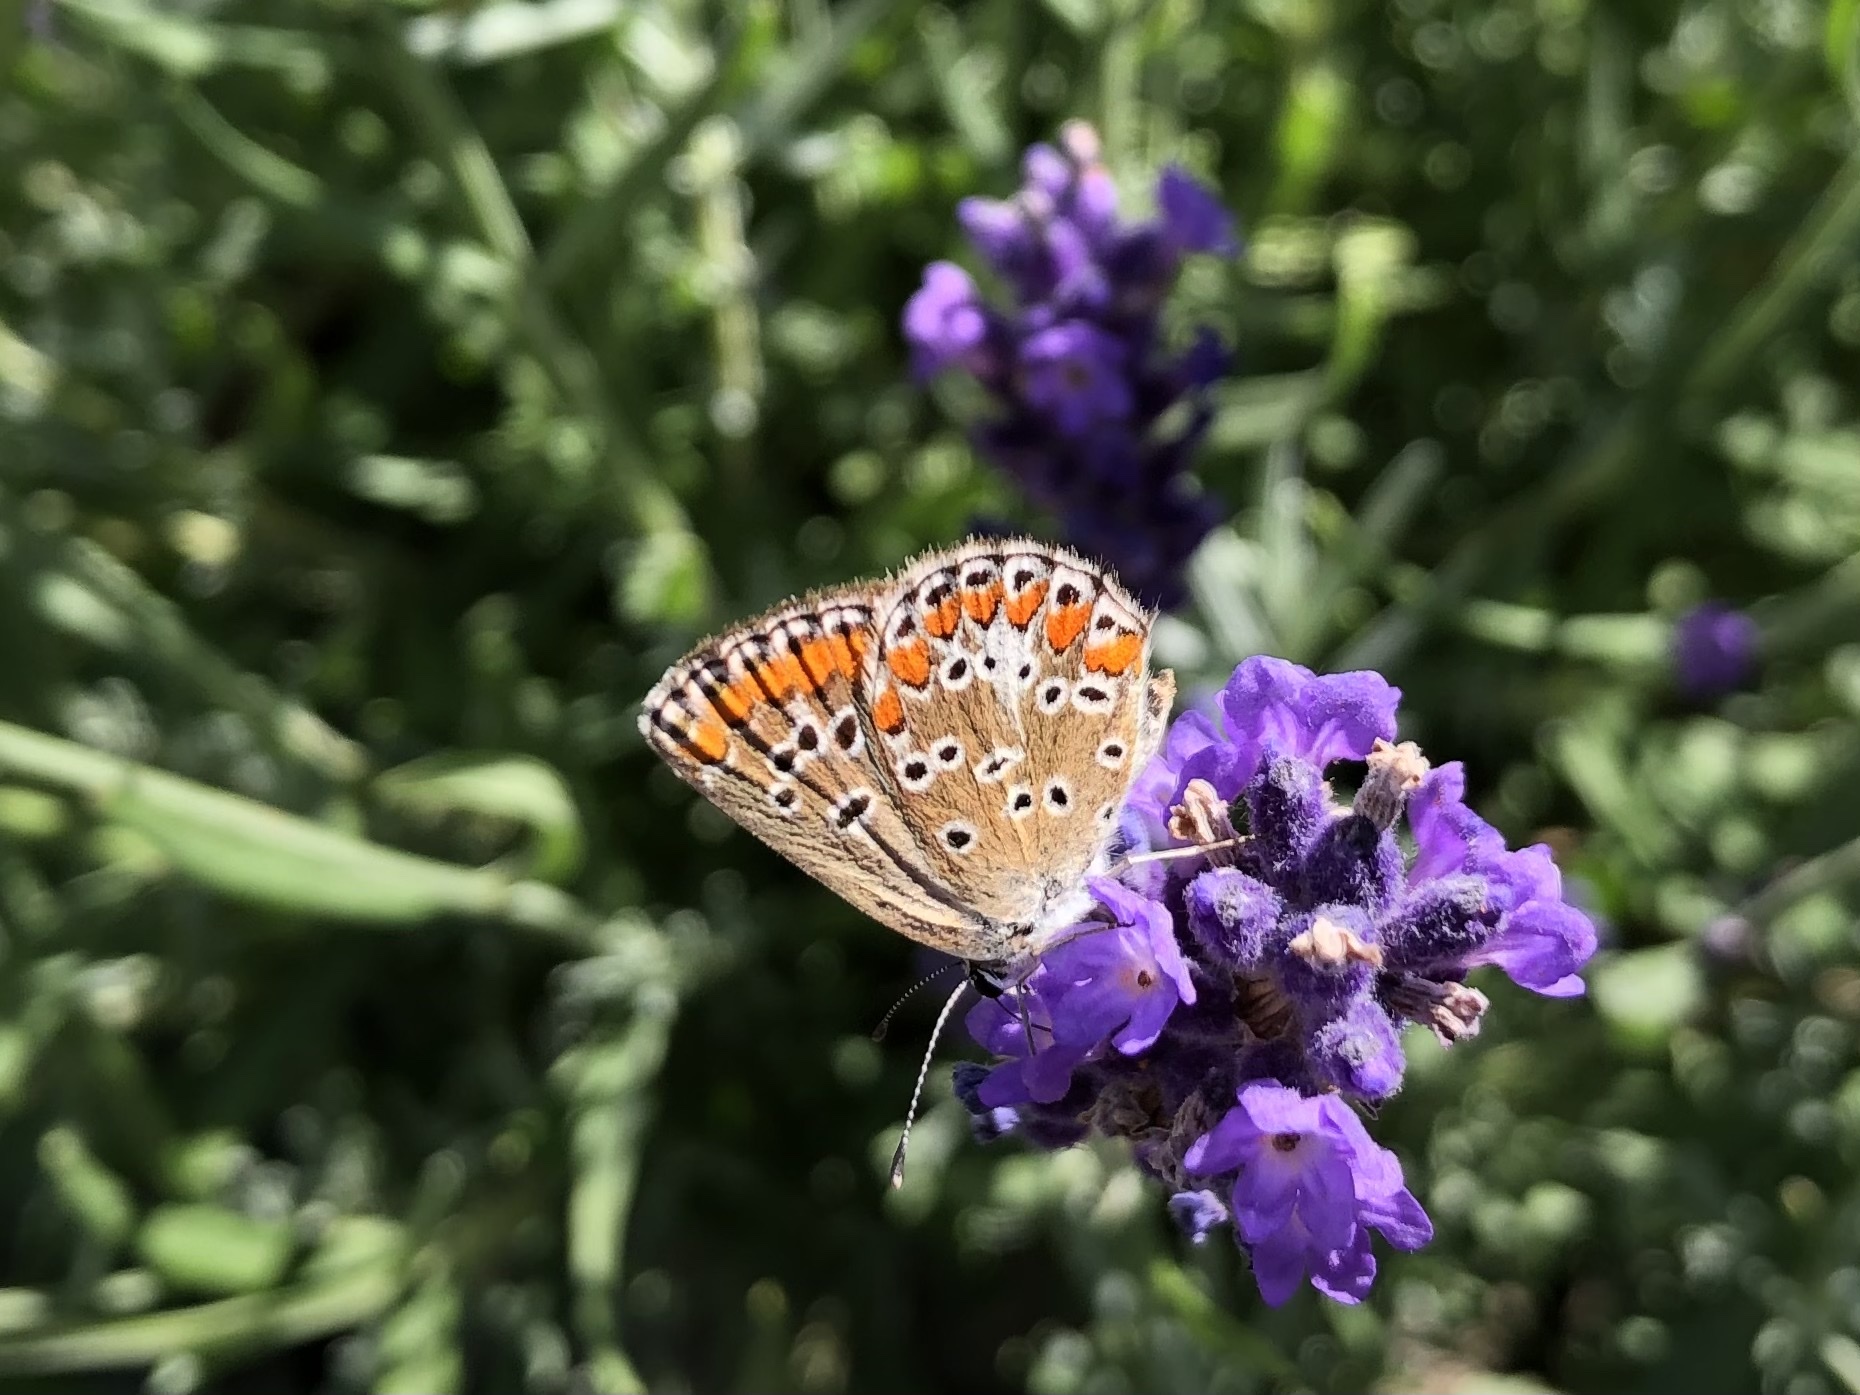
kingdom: Animalia
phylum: Arthropoda
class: Insecta
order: Lepidoptera
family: Lycaenidae
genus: Aricia
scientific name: Aricia agestis
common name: Brown argus
